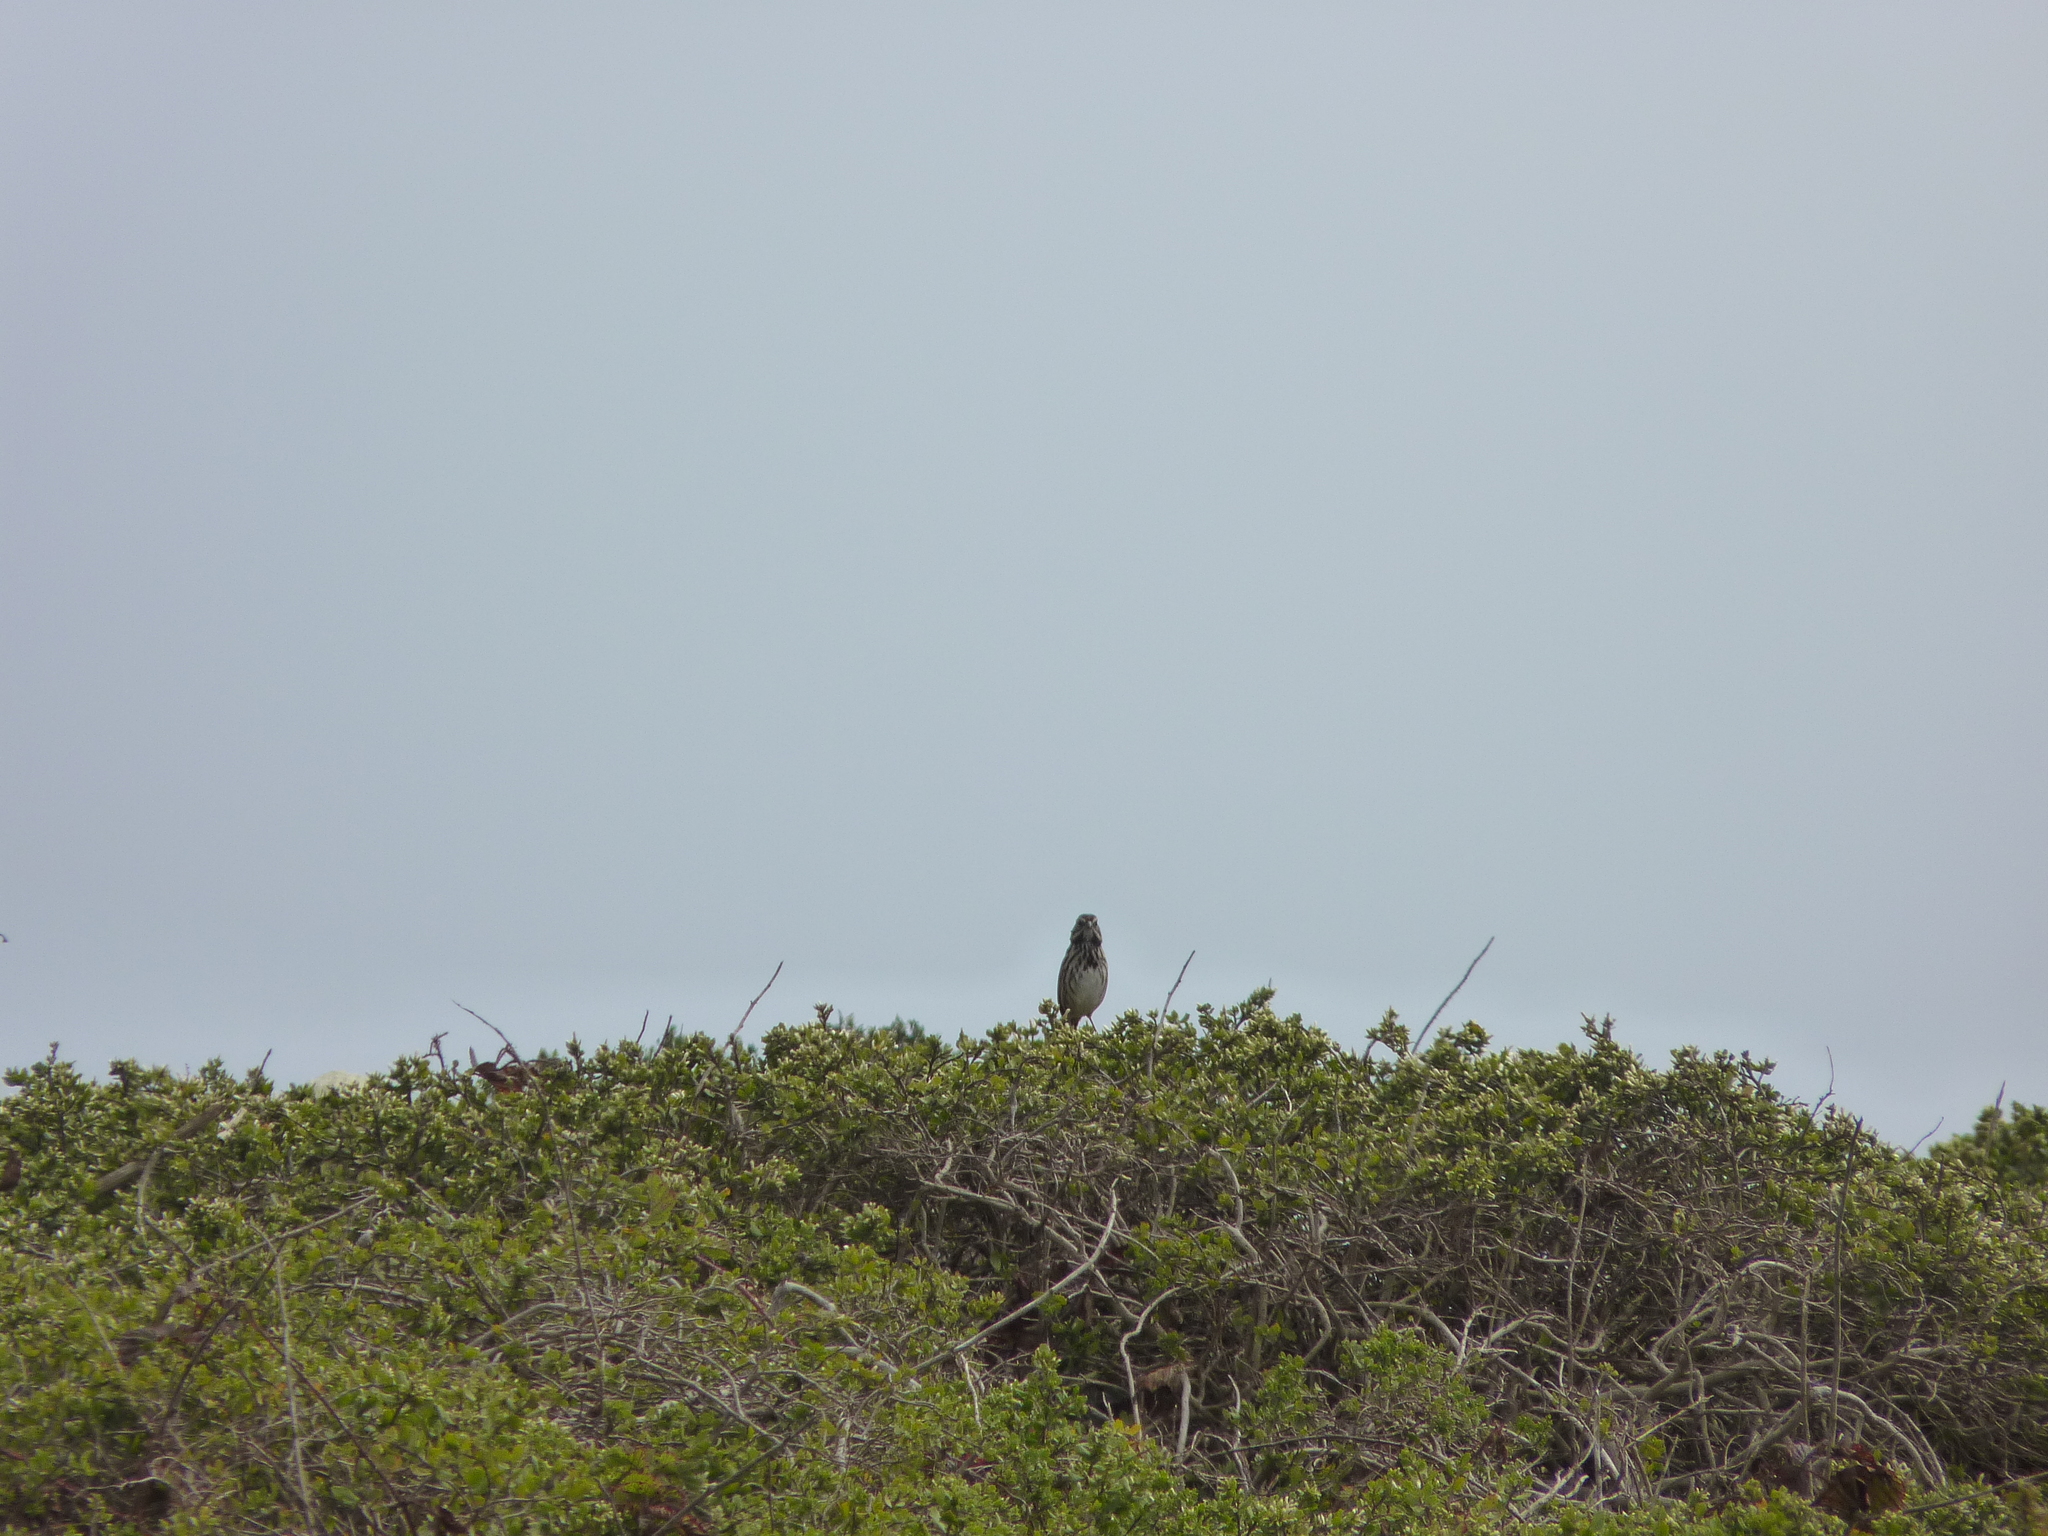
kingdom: Animalia
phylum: Chordata
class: Aves
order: Passeriformes
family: Passerellidae
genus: Melospiza
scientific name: Melospiza melodia
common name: Song sparrow
